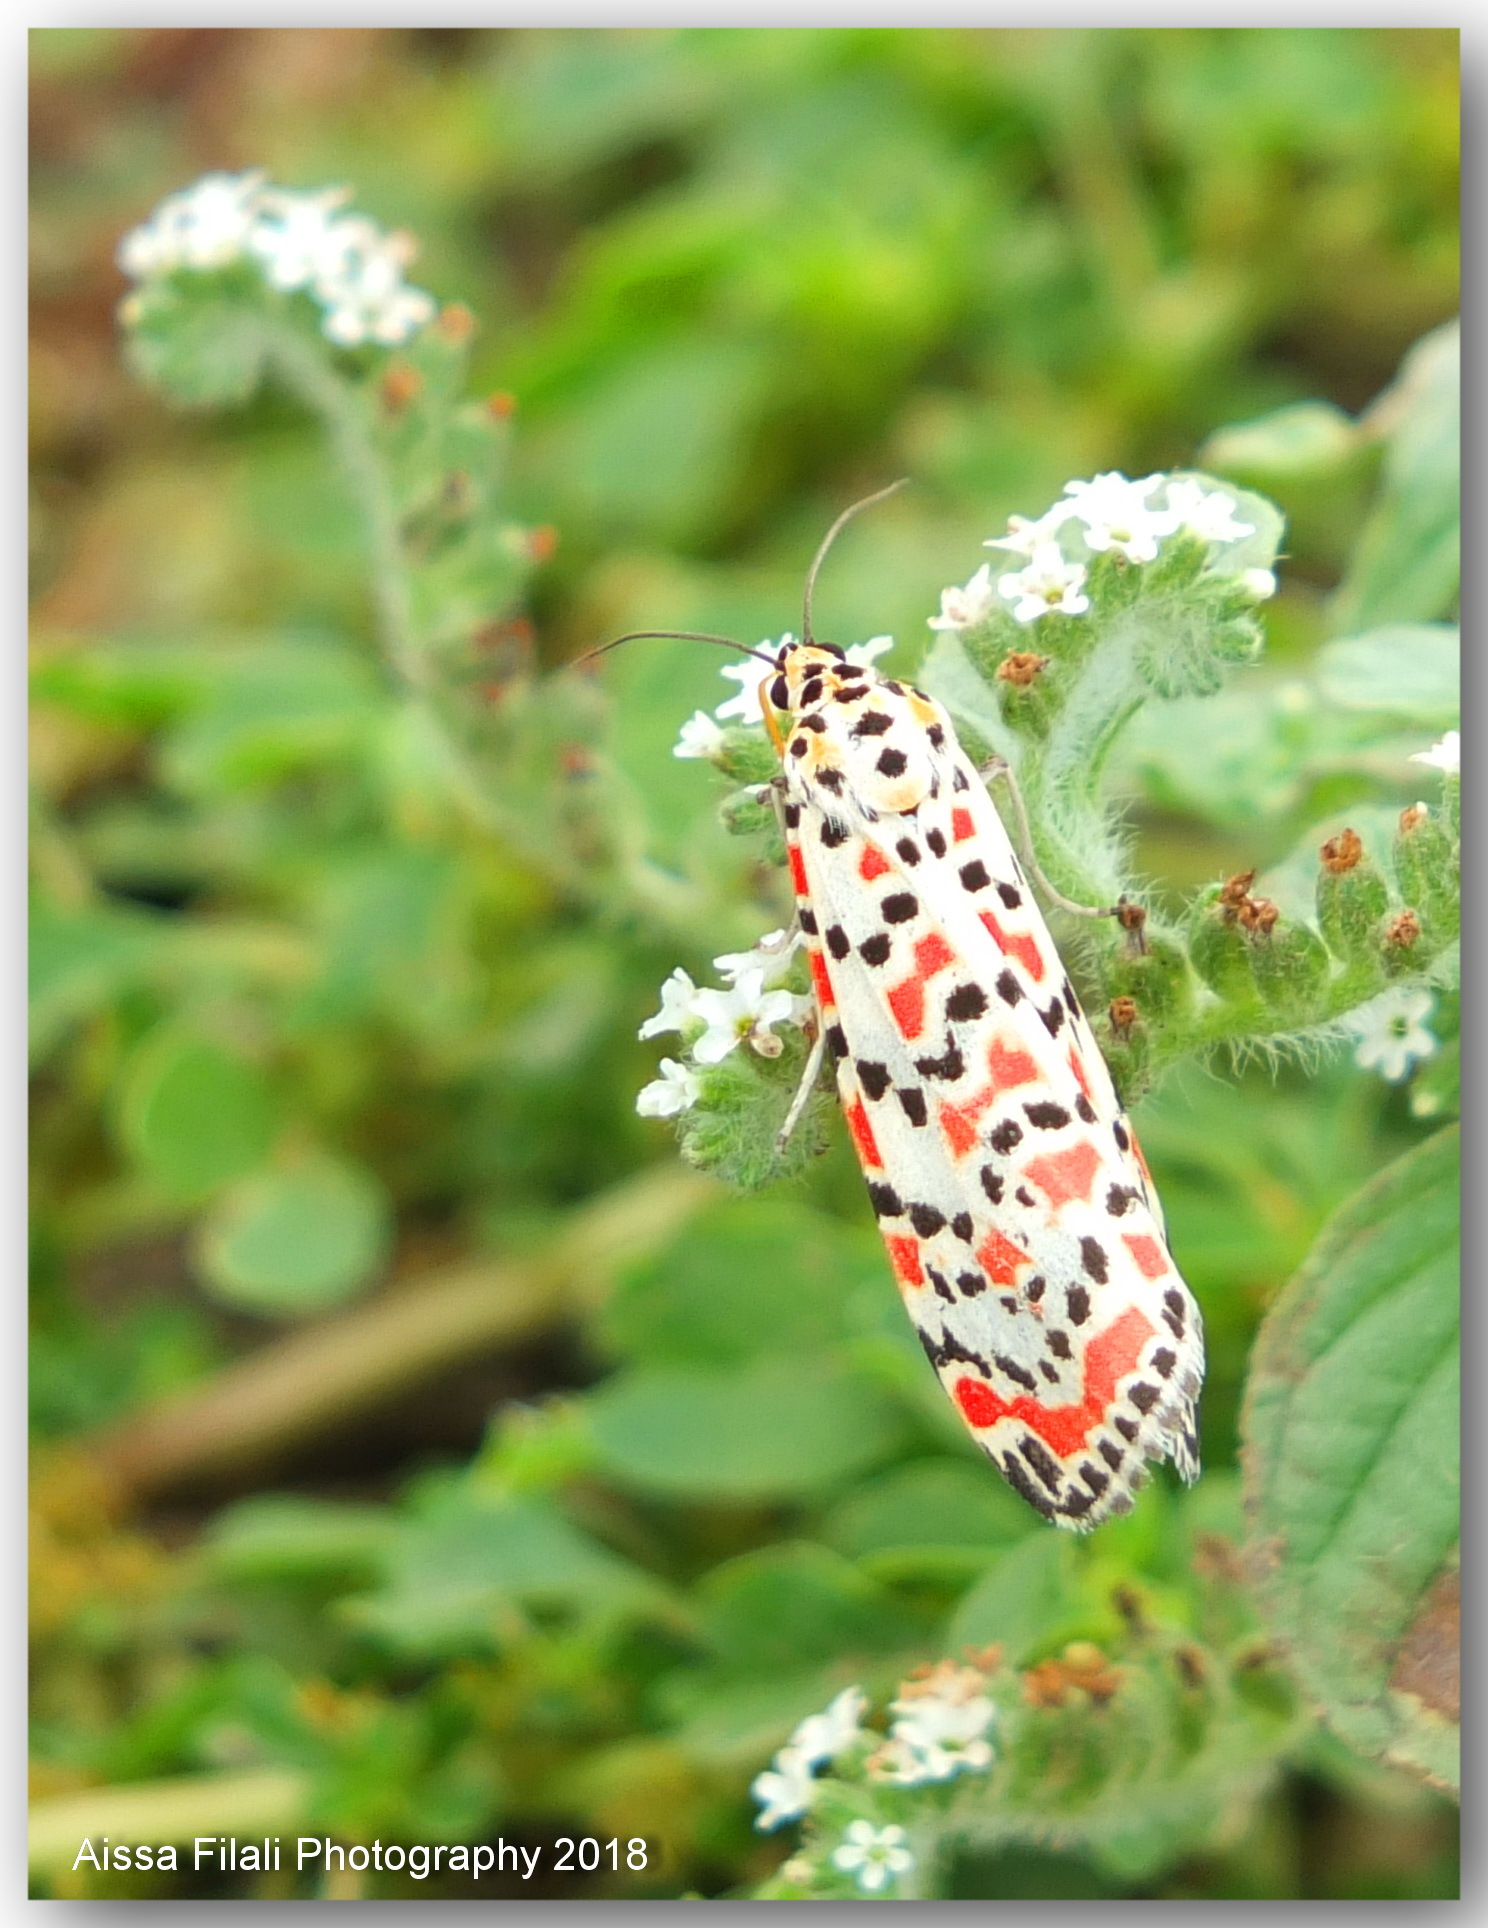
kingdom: Animalia
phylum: Arthropoda
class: Insecta
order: Lepidoptera
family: Erebidae
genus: Utetheisa
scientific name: Utetheisa pulchella
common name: Crimson speckled
